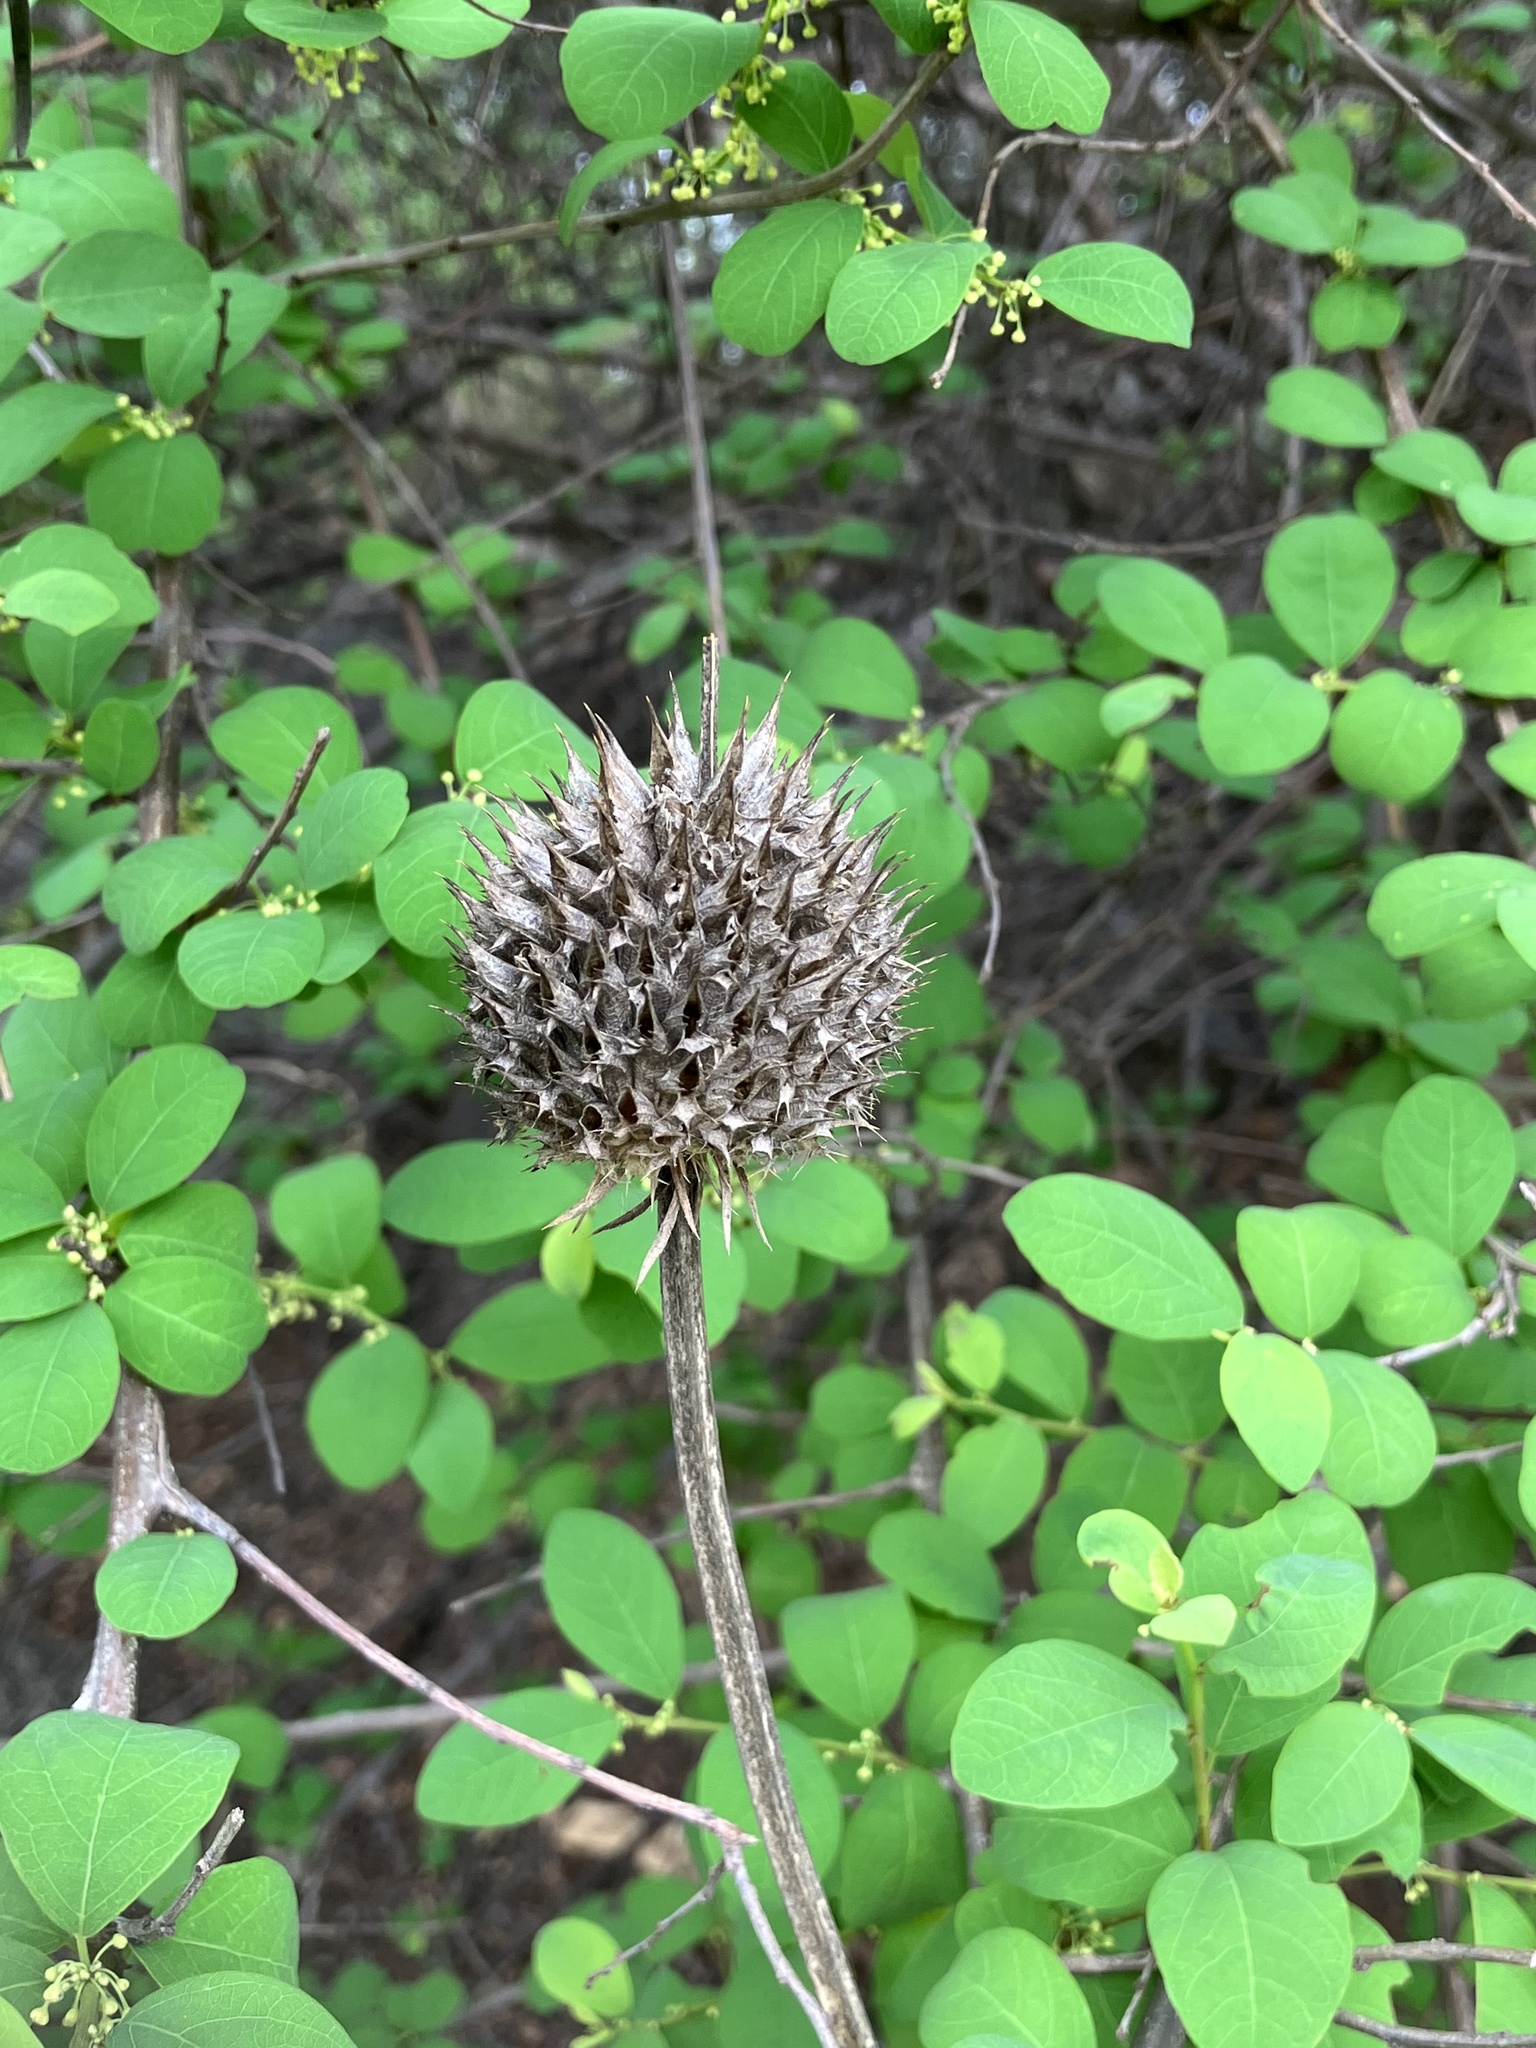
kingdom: Plantae
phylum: Tracheophyta
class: Magnoliopsida
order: Lamiales
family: Lamiaceae
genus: Leonotis
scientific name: Leonotis nepetifolia
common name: Christmas candlestick
